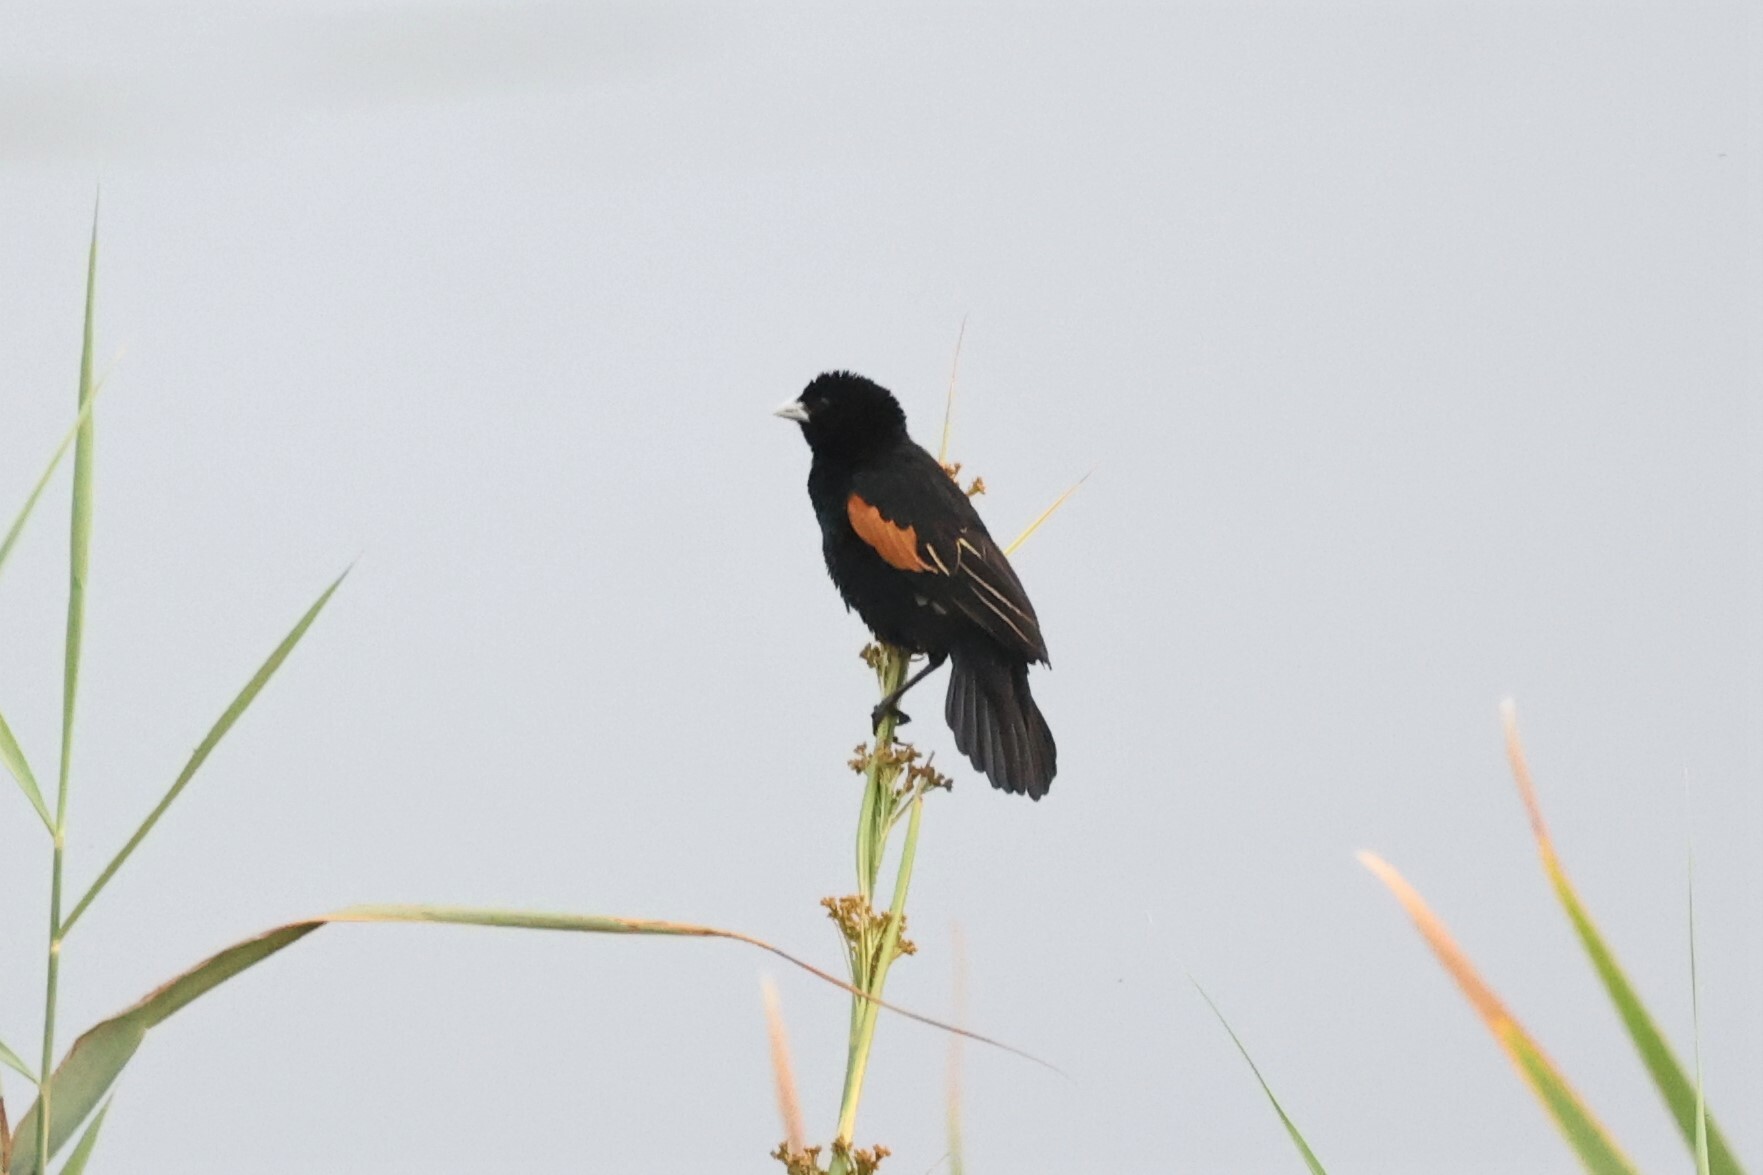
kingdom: Animalia
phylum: Chordata
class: Aves
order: Passeriformes
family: Ploceidae
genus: Euplectes
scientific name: Euplectes axillaris
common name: Fan-tailed widowbird
